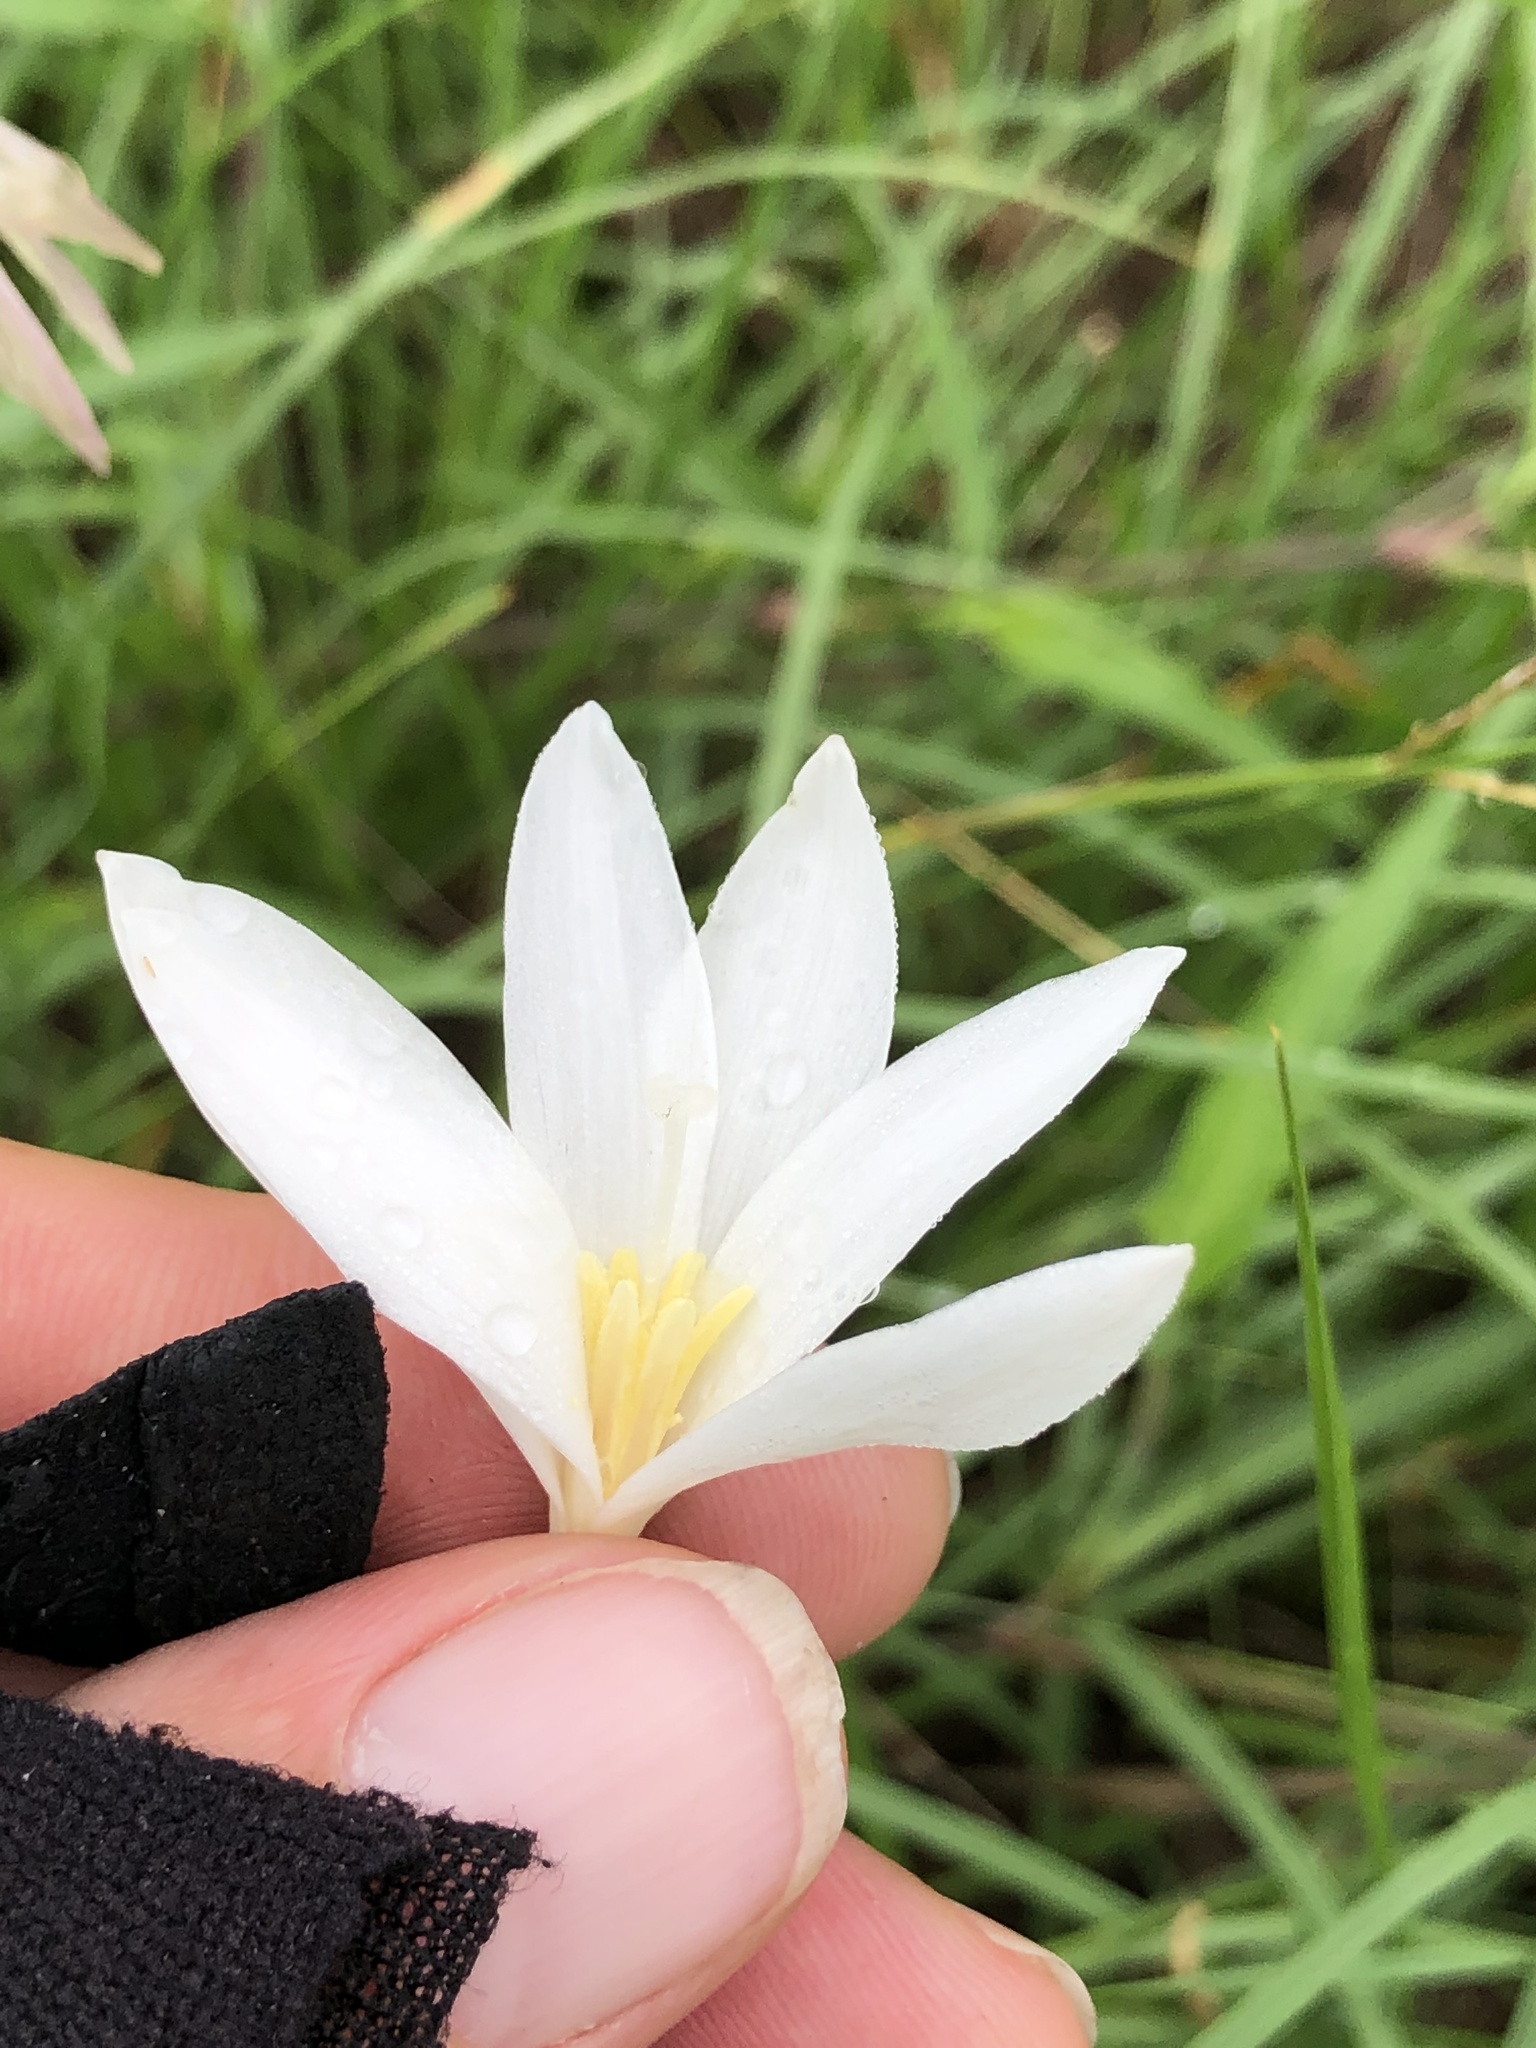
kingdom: Plantae
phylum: Tracheophyta
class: Liliopsida
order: Asparagales
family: Amaryllidaceae
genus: Zephyranthes
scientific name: Zephyranthes traubii
